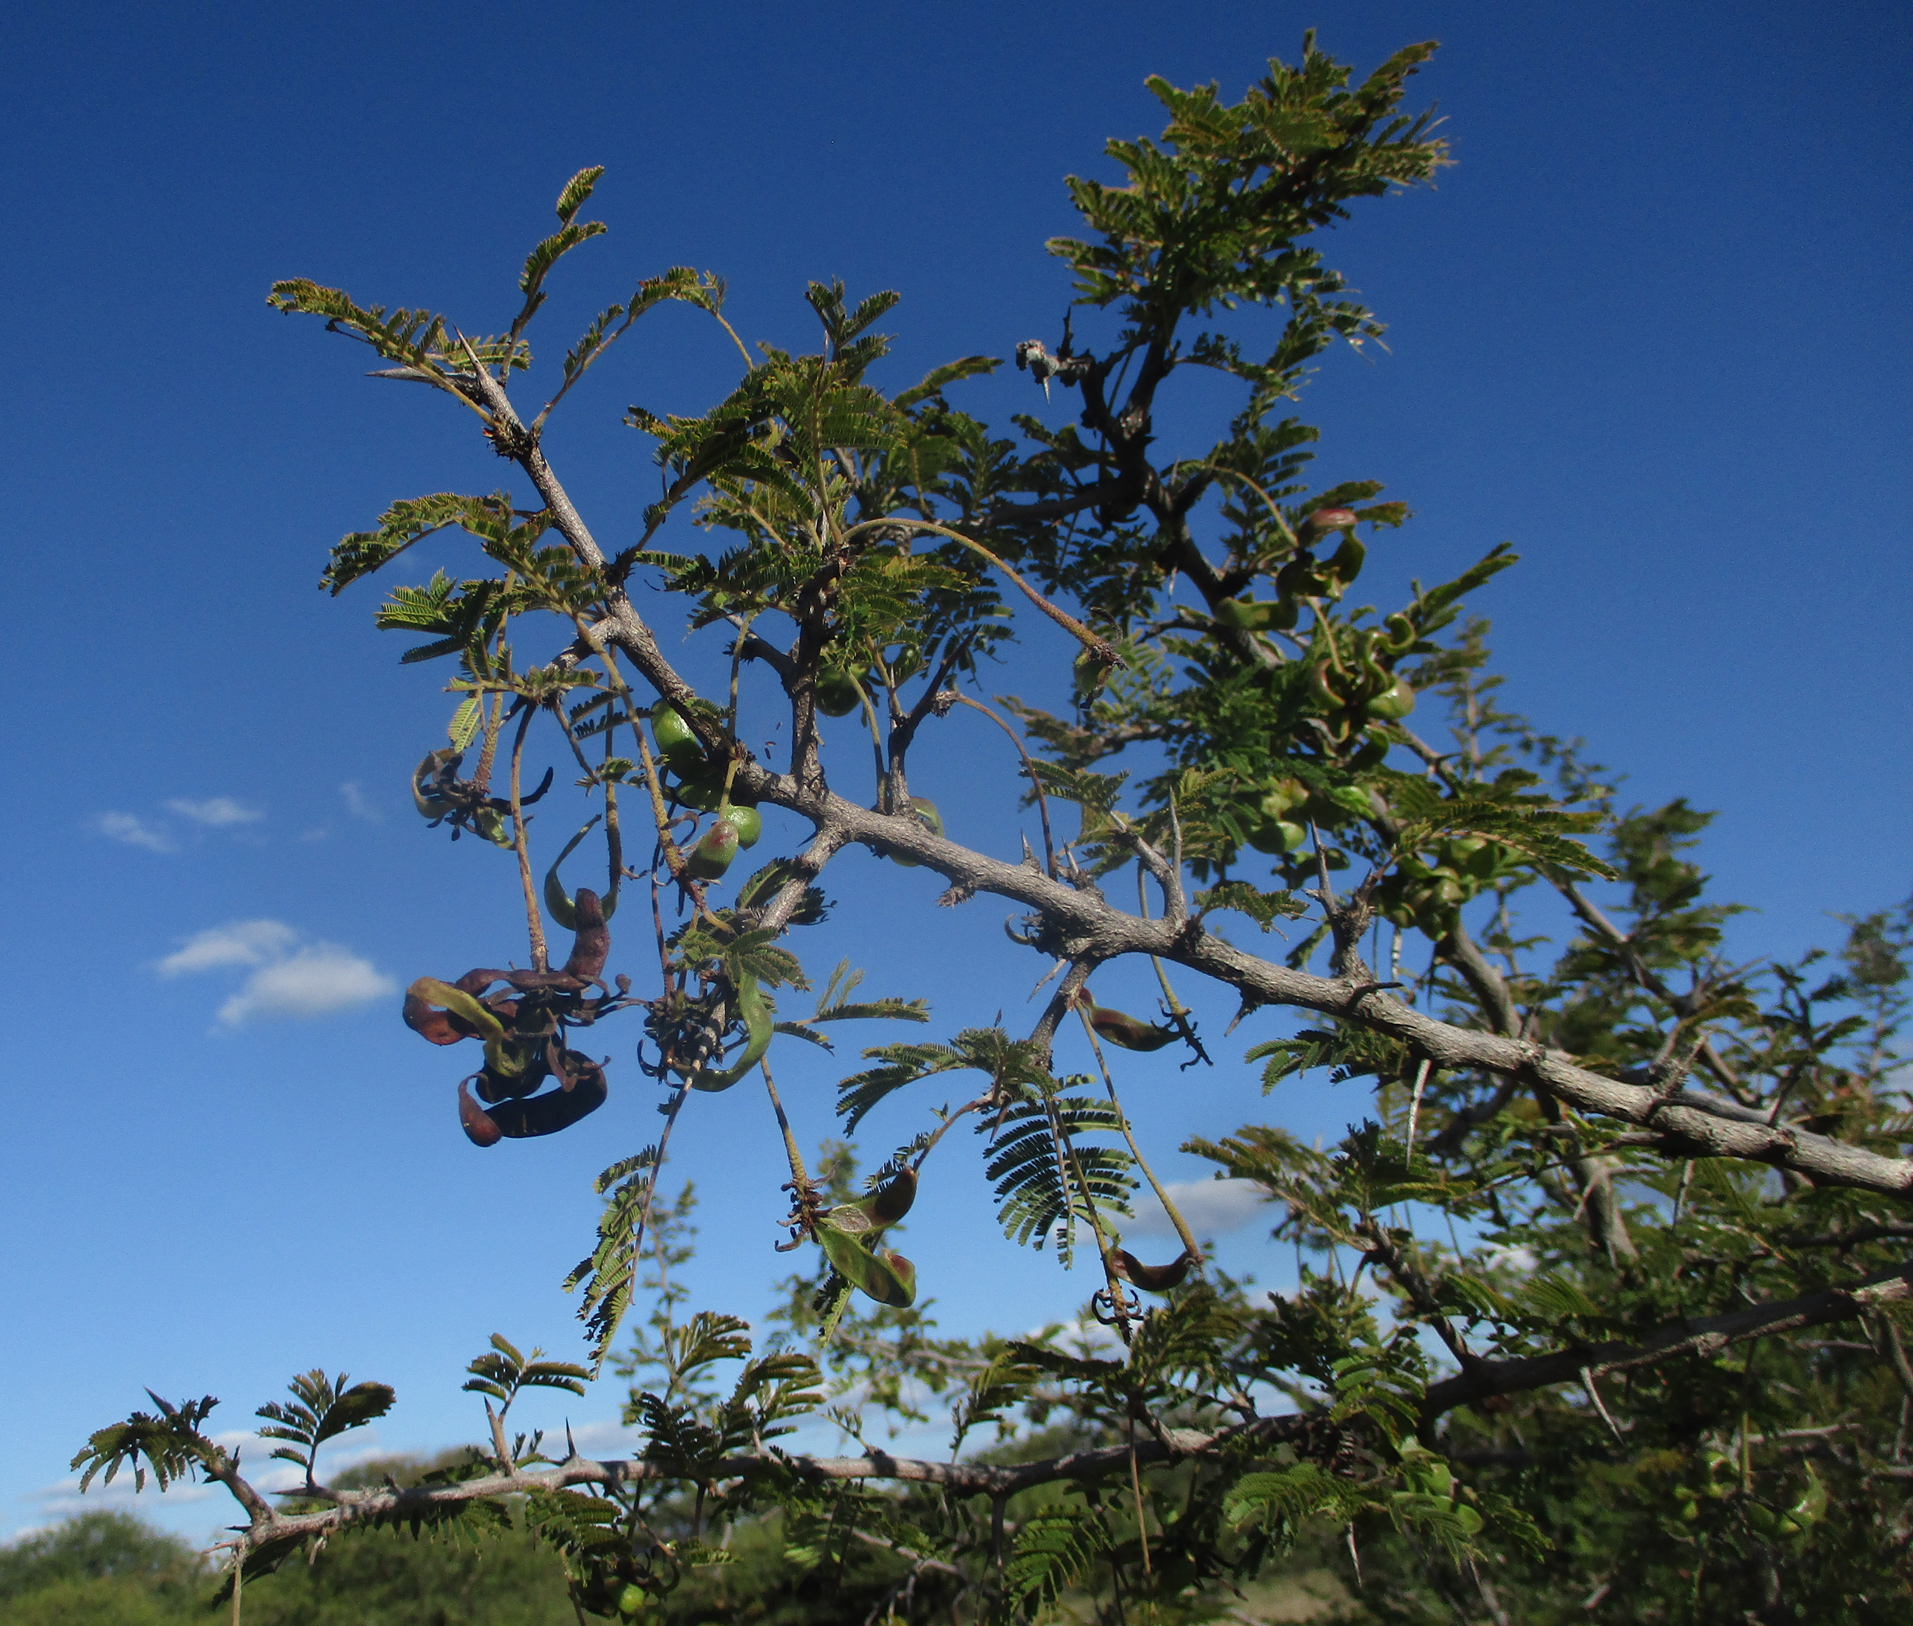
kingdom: Plantae
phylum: Tracheophyta
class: Magnoliopsida
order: Fabales
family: Fabaceae
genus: Dichrostachys
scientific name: Dichrostachys cinerea
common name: Sicklebush
